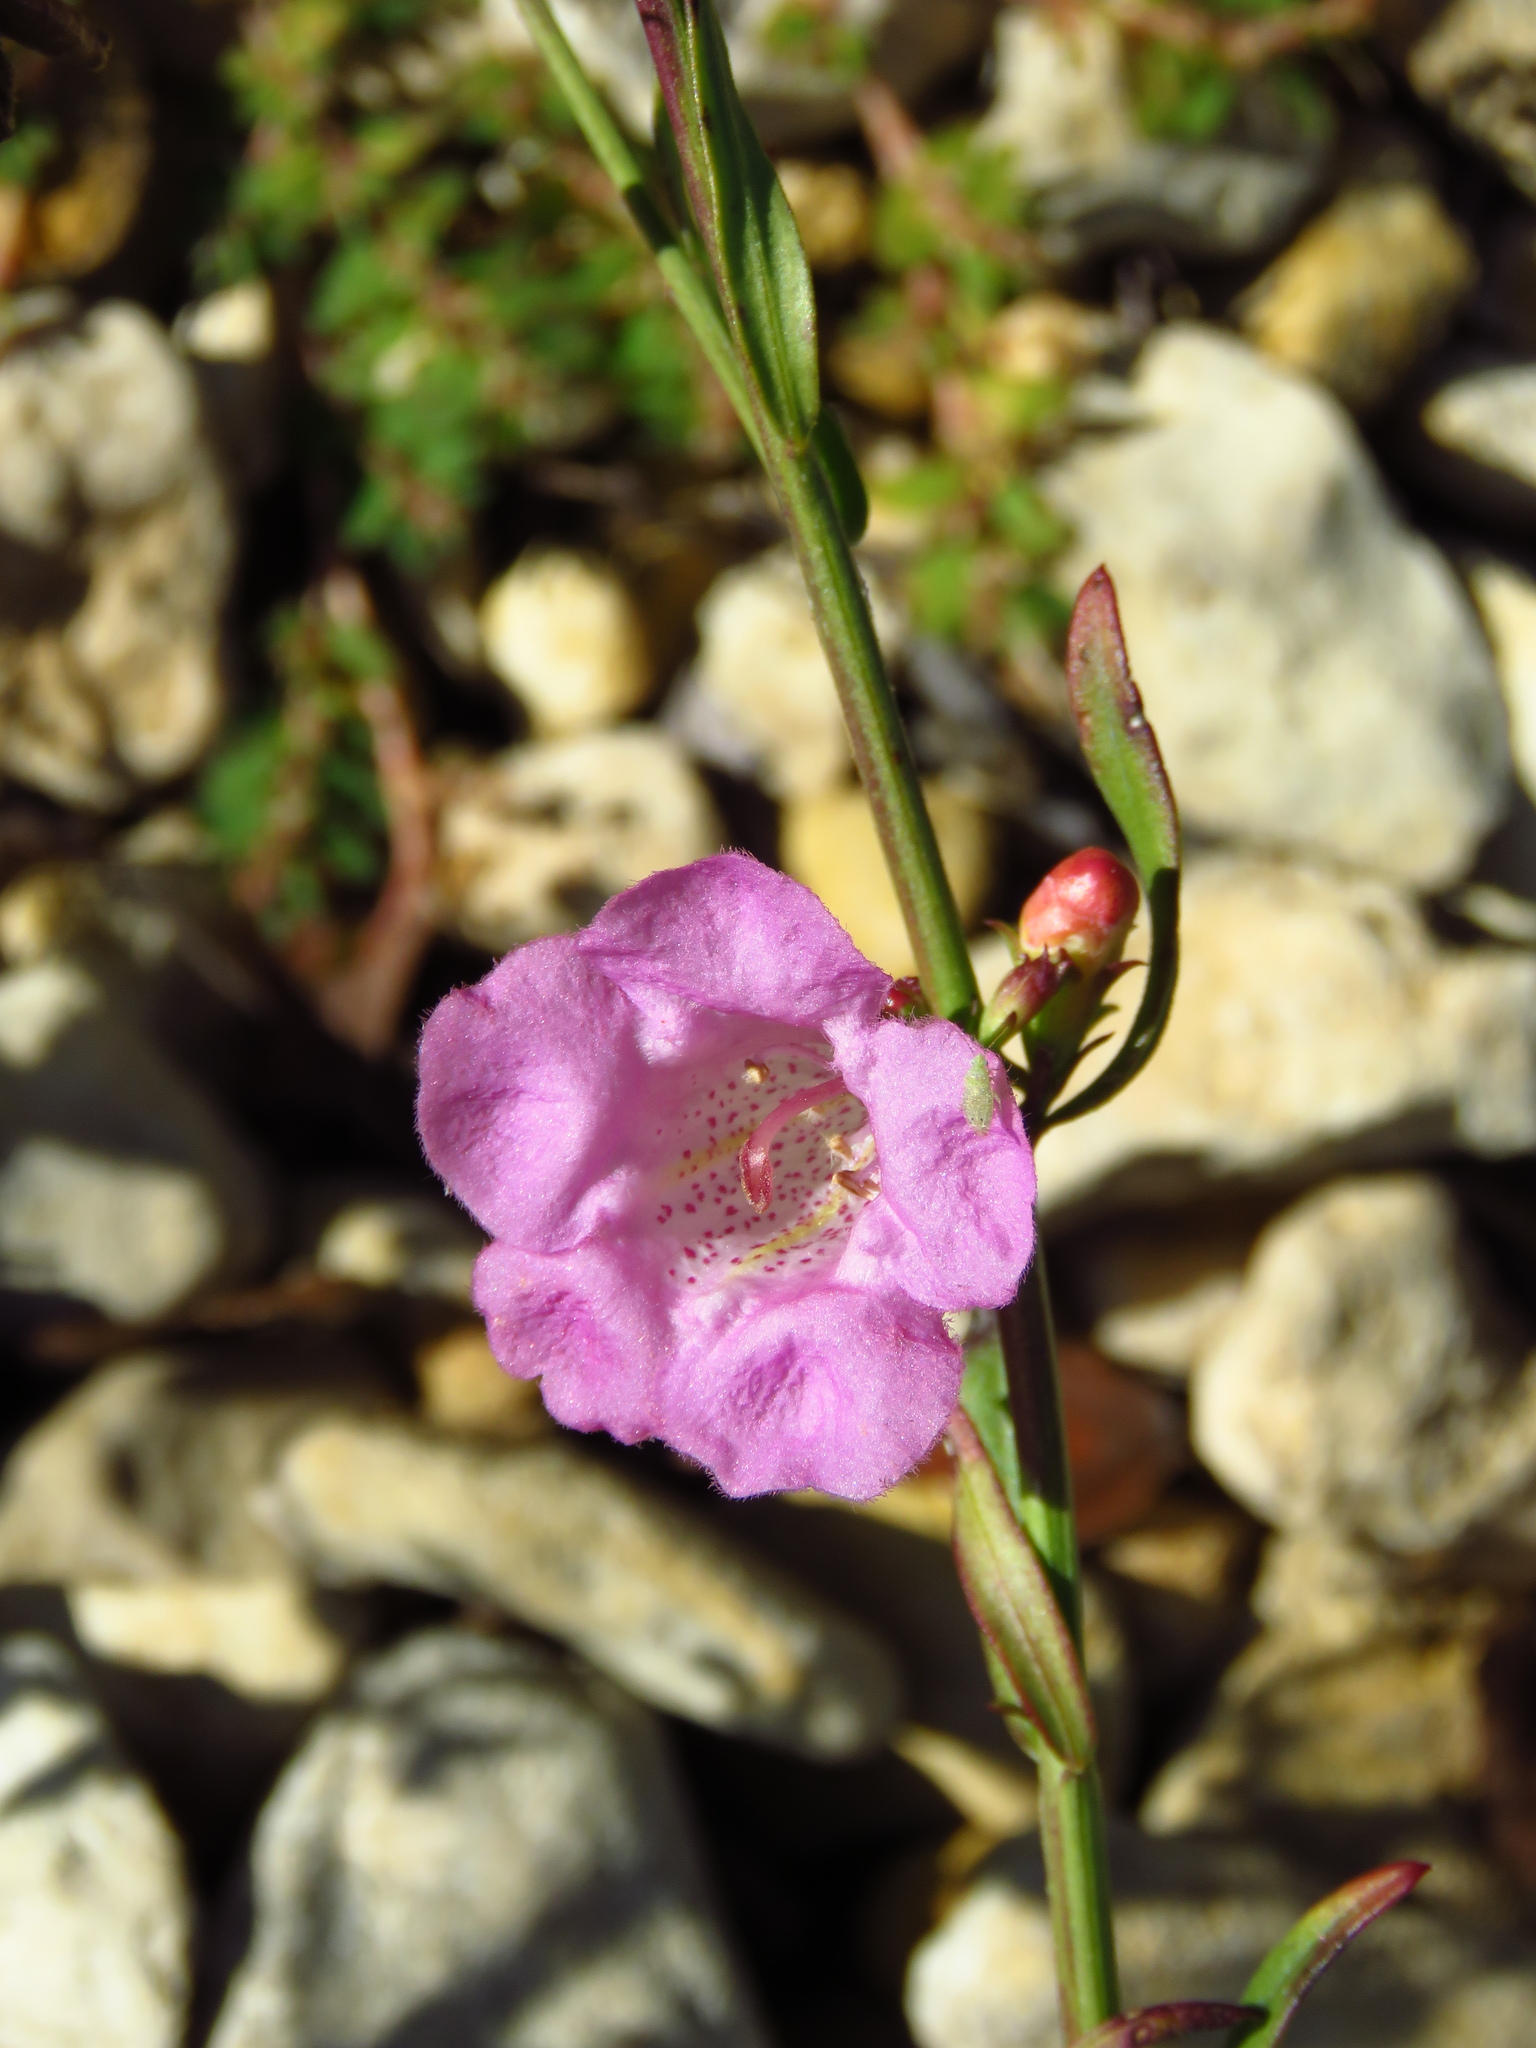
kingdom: Plantae
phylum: Tracheophyta
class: Magnoliopsida
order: Lamiales
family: Orobanchaceae
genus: Agalinis
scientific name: Agalinis heterophylla
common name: Prairie agalinis
